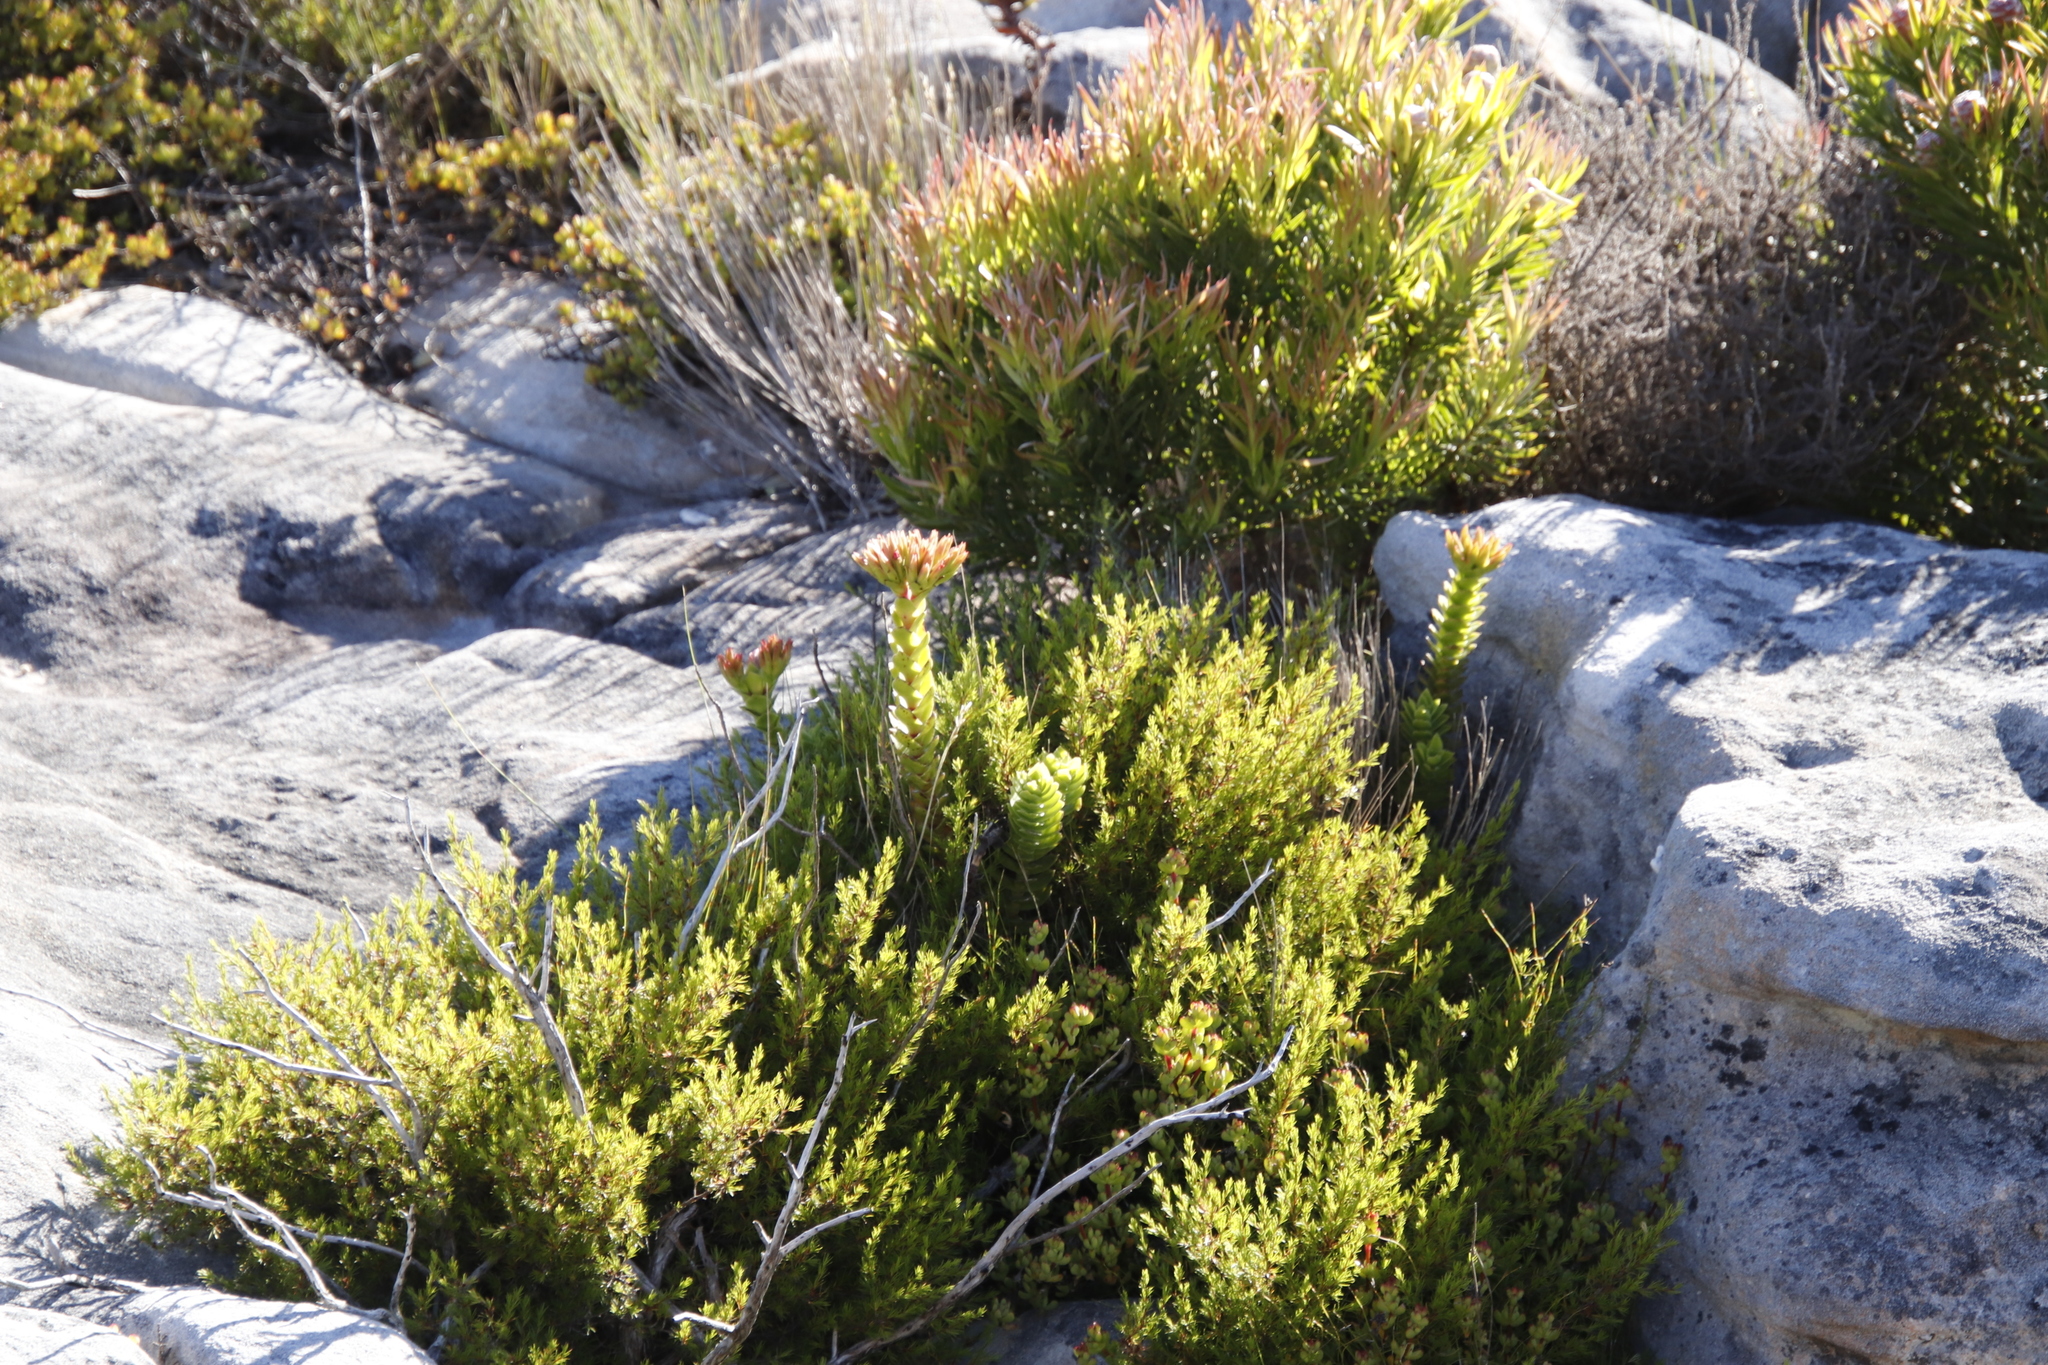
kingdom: Plantae
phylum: Tracheophyta
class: Magnoliopsida
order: Saxifragales
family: Crassulaceae
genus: Crassula
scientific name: Crassula coccinea
